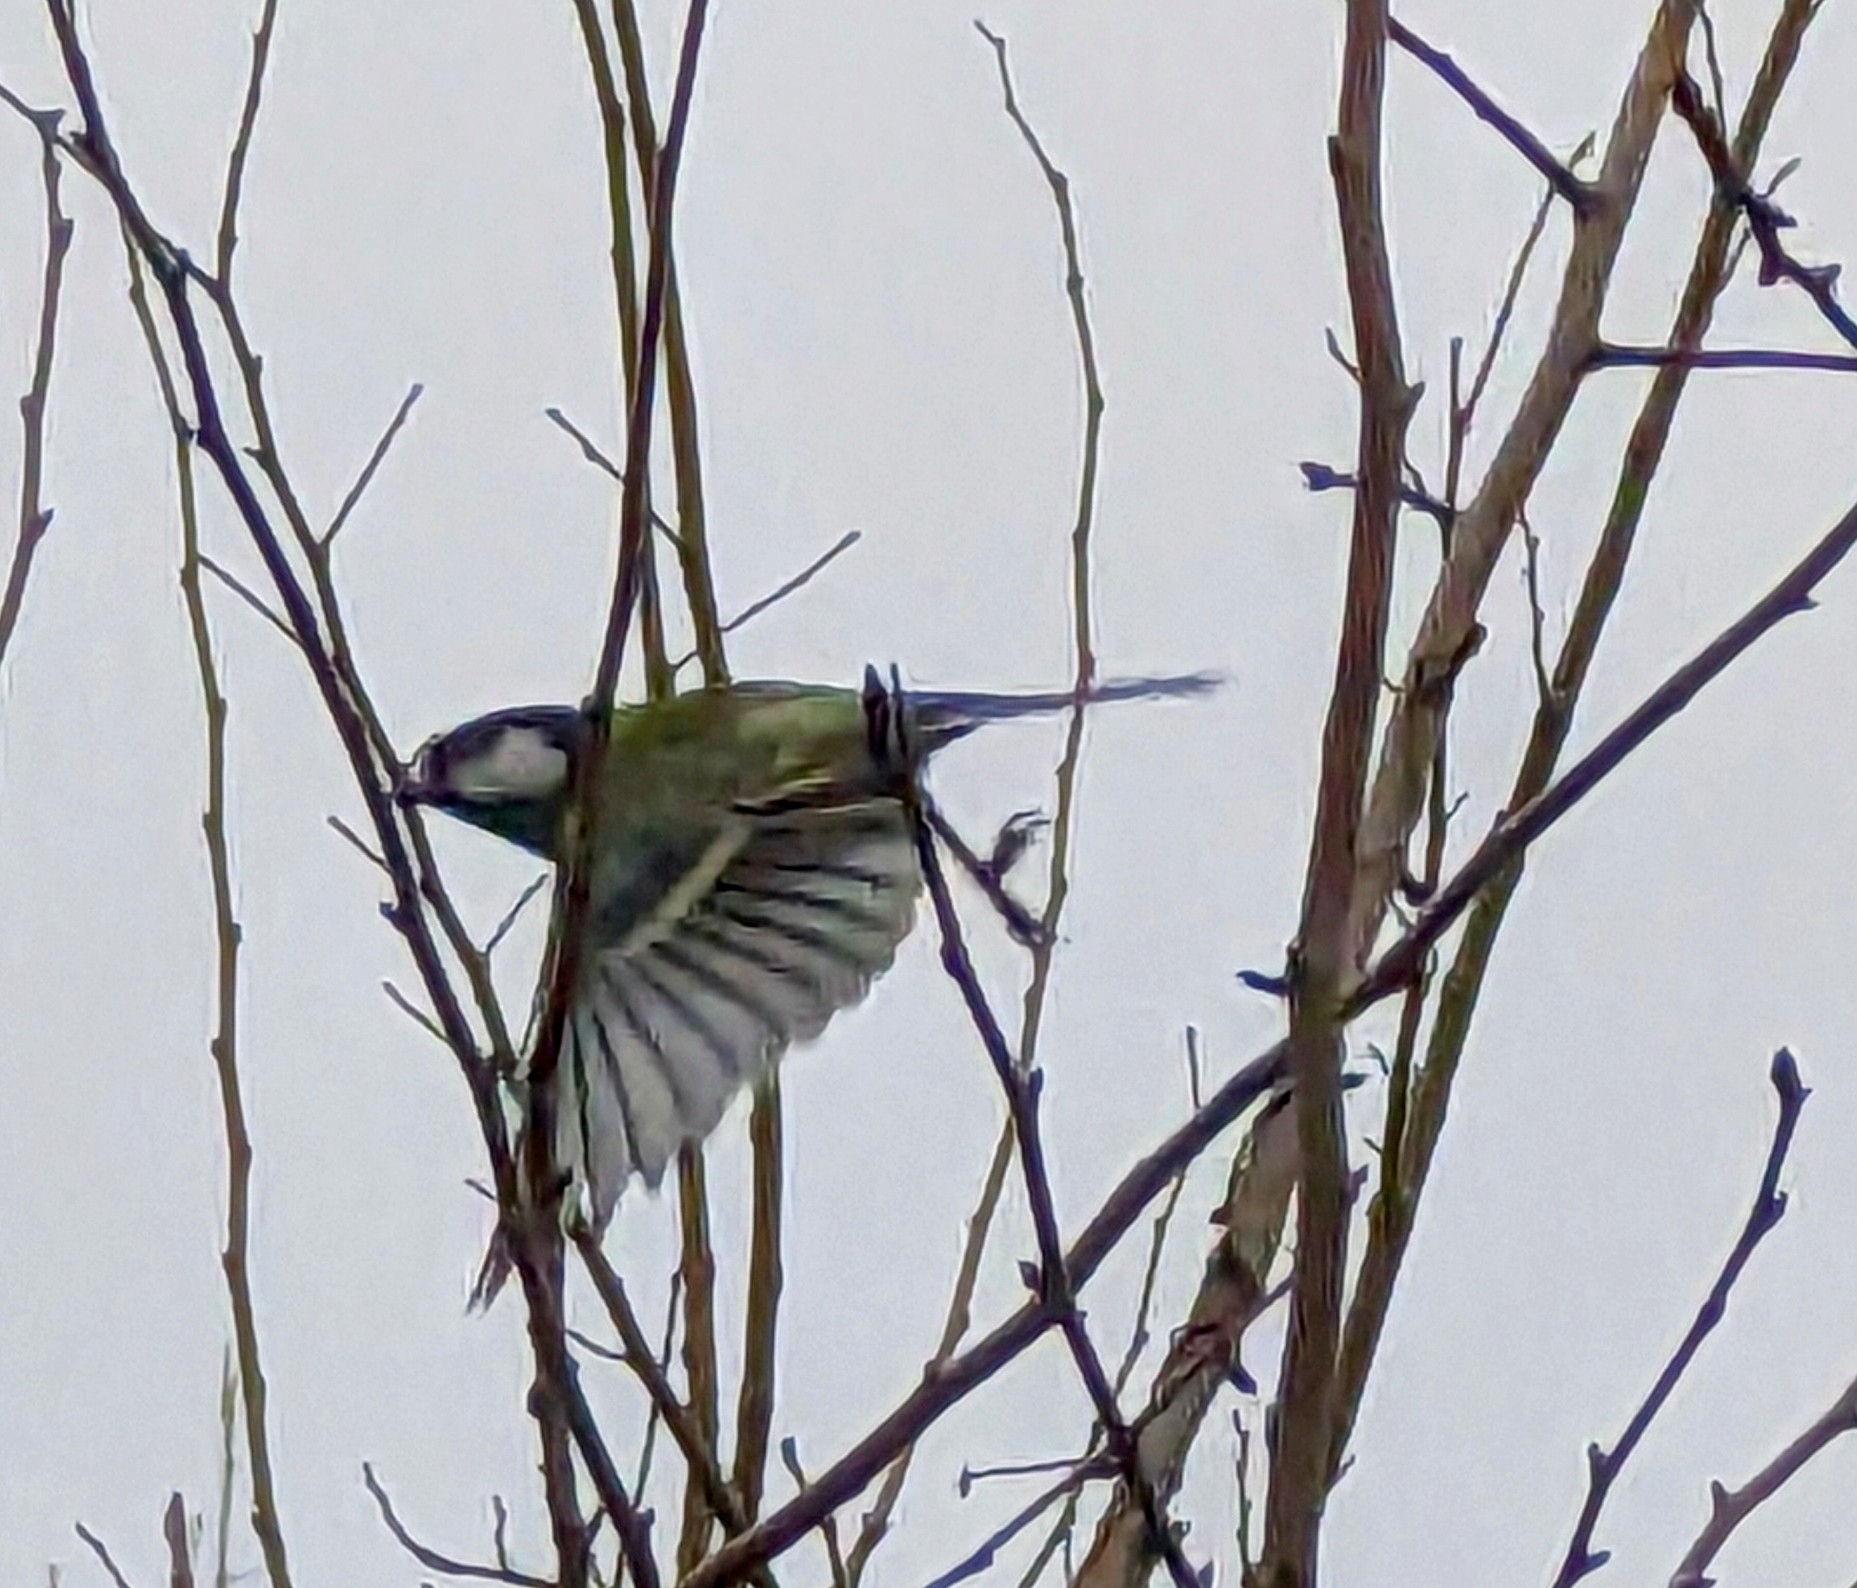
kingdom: Animalia
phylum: Chordata
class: Aves
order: Passeriformes
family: Paridae
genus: Parus
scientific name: Parus major
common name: Great tit
